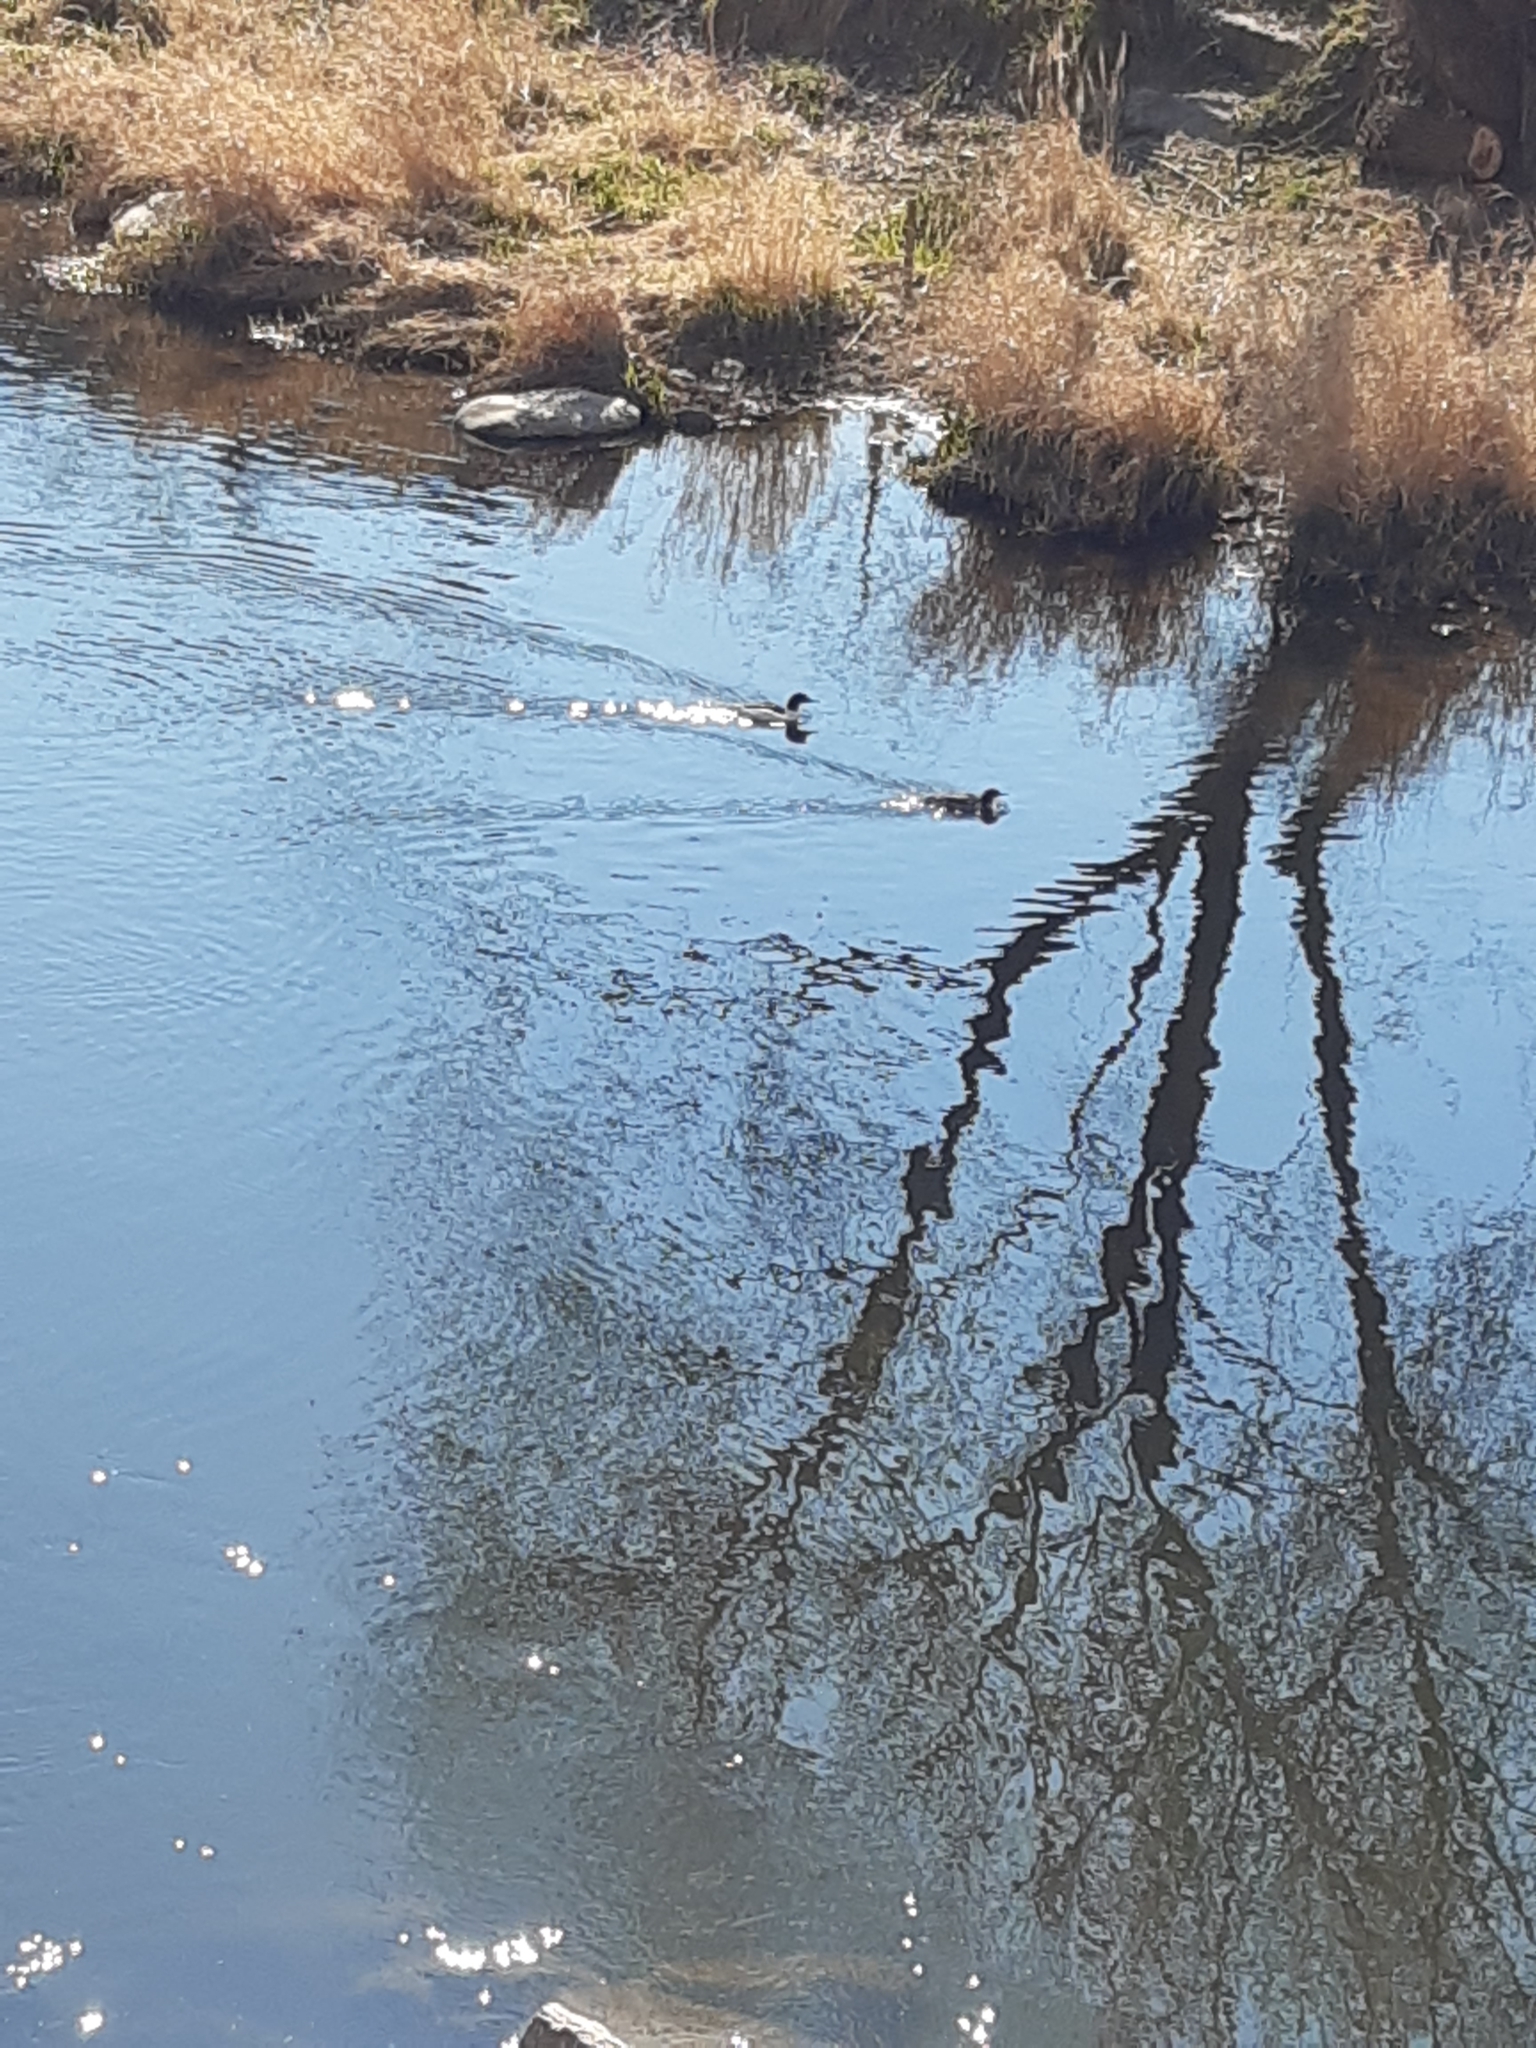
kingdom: Animalia
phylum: Chordata
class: Aves
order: Anseriformes
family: Anatidae
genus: Mergus
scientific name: Mergus merganser
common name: Common merganser
